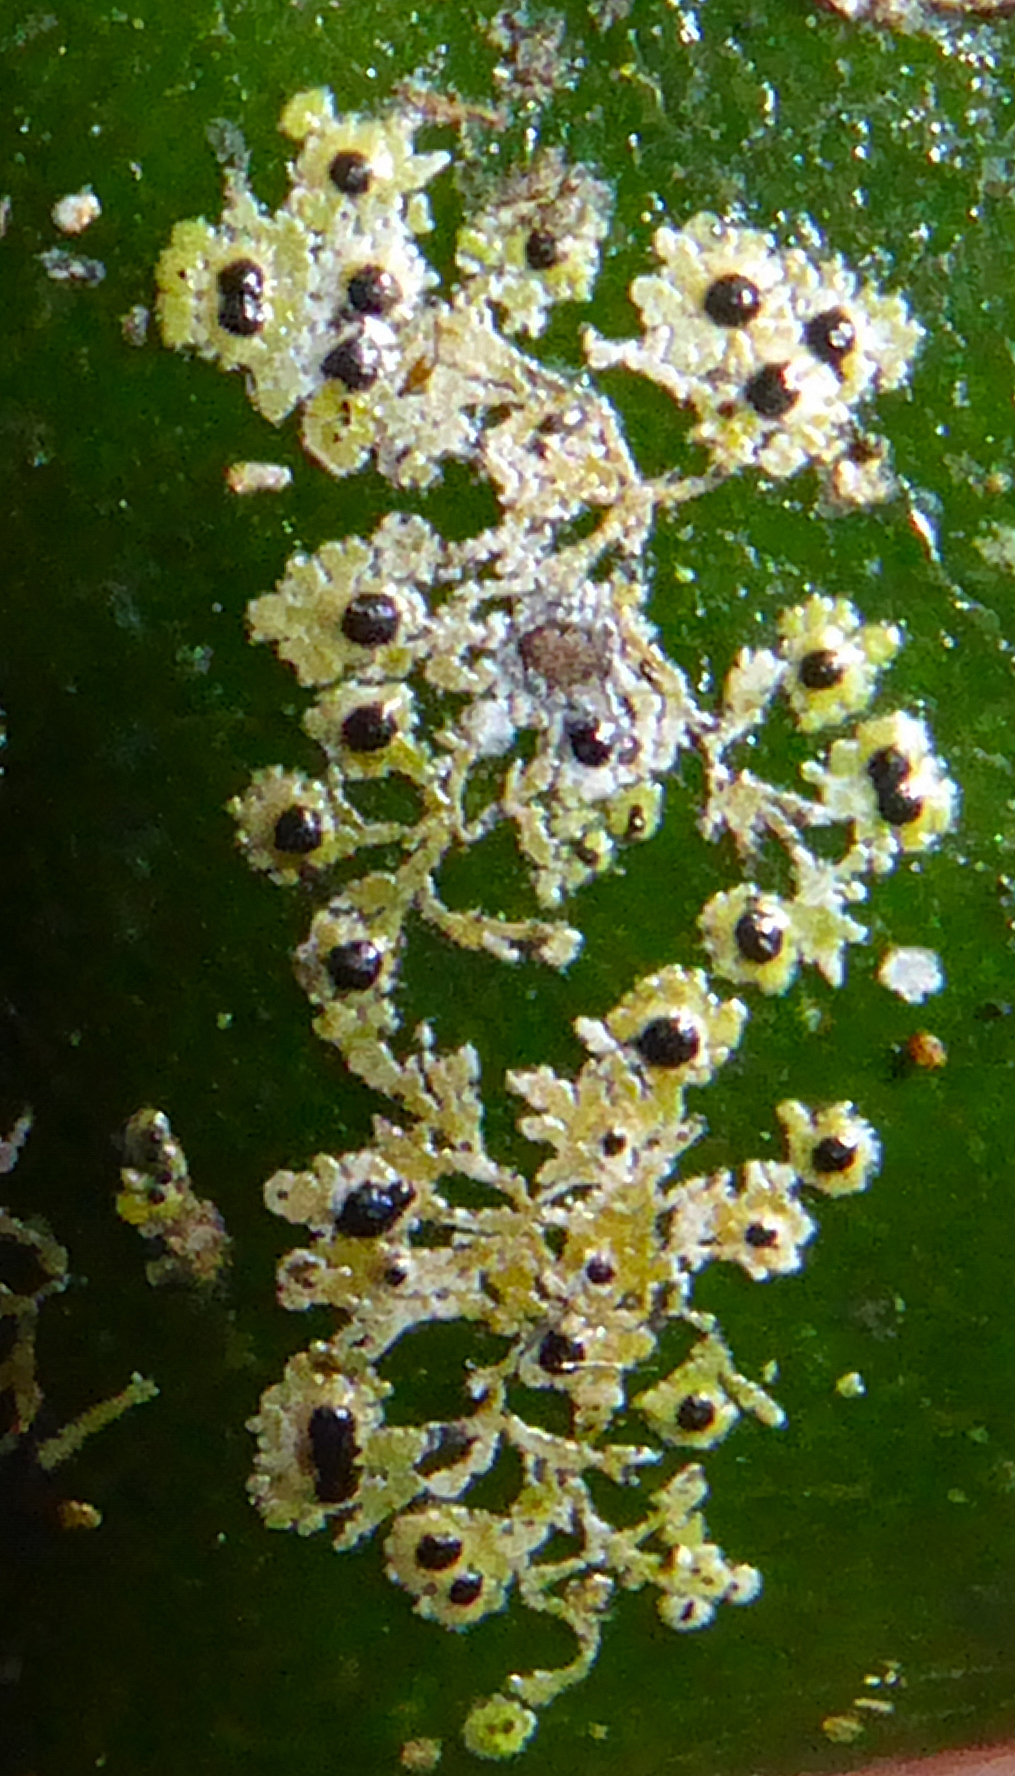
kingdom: Fungi
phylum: Ascomycota
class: Dothideomycetes
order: Strigulales
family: Strigulaceae
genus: Strigula
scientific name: Strigula
